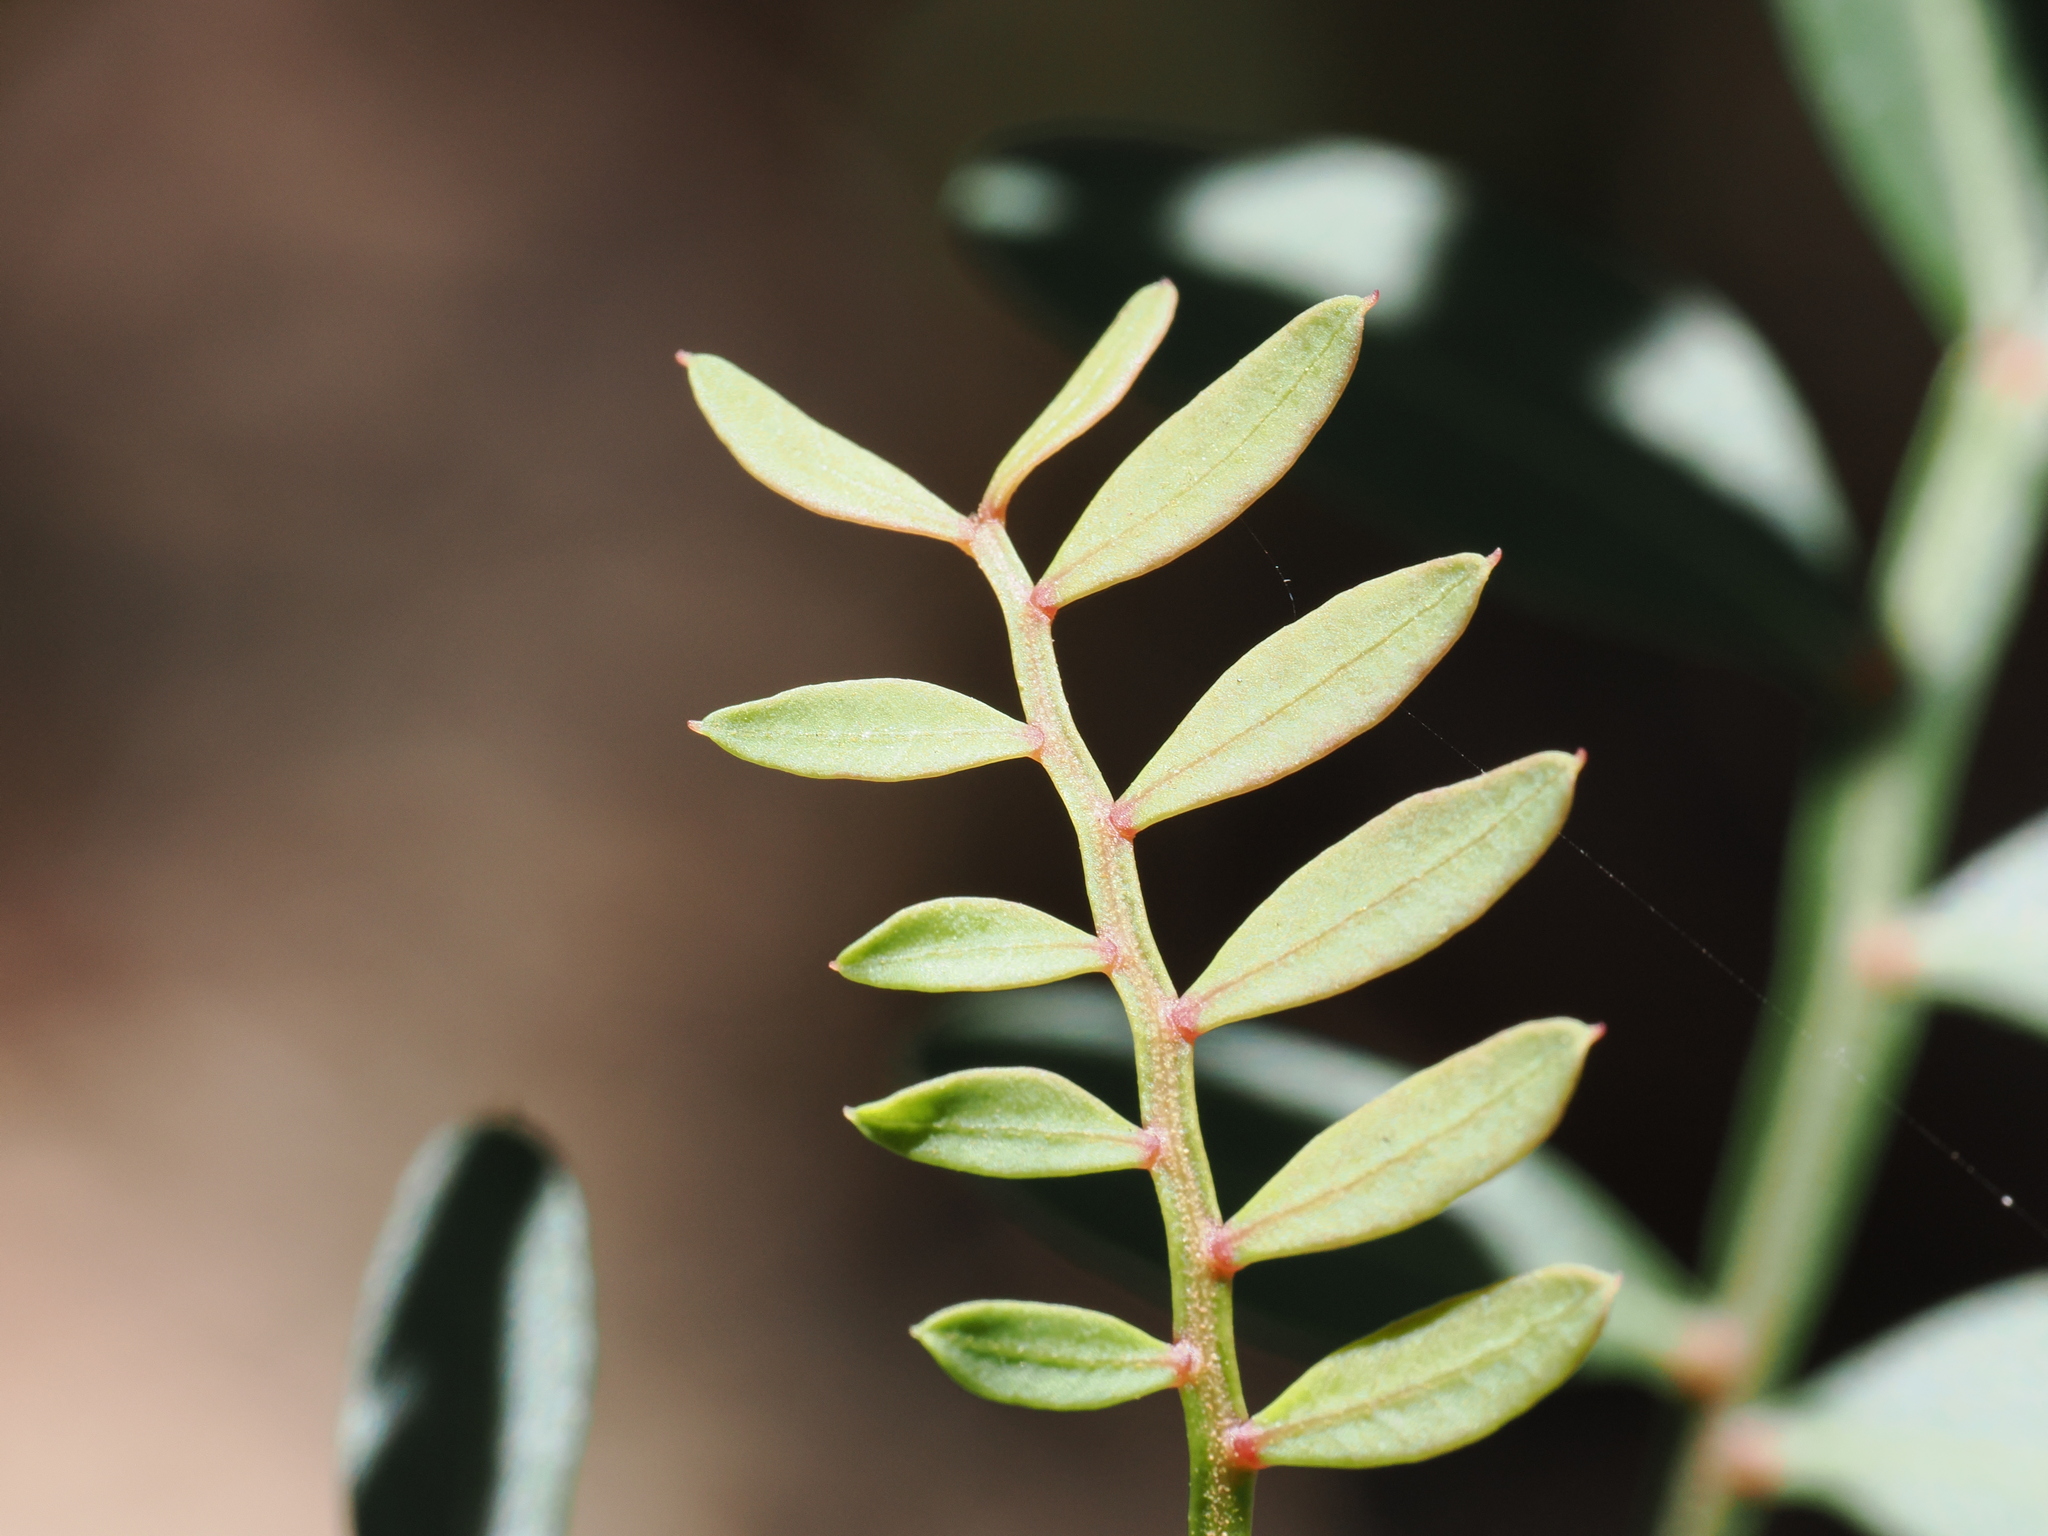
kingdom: Plantae
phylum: Tracheophyta
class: Magnoliopsida
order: Sapindales
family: Anacardiaceae
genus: Pistacia
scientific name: Pistacia lentiscus
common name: Lentisk
